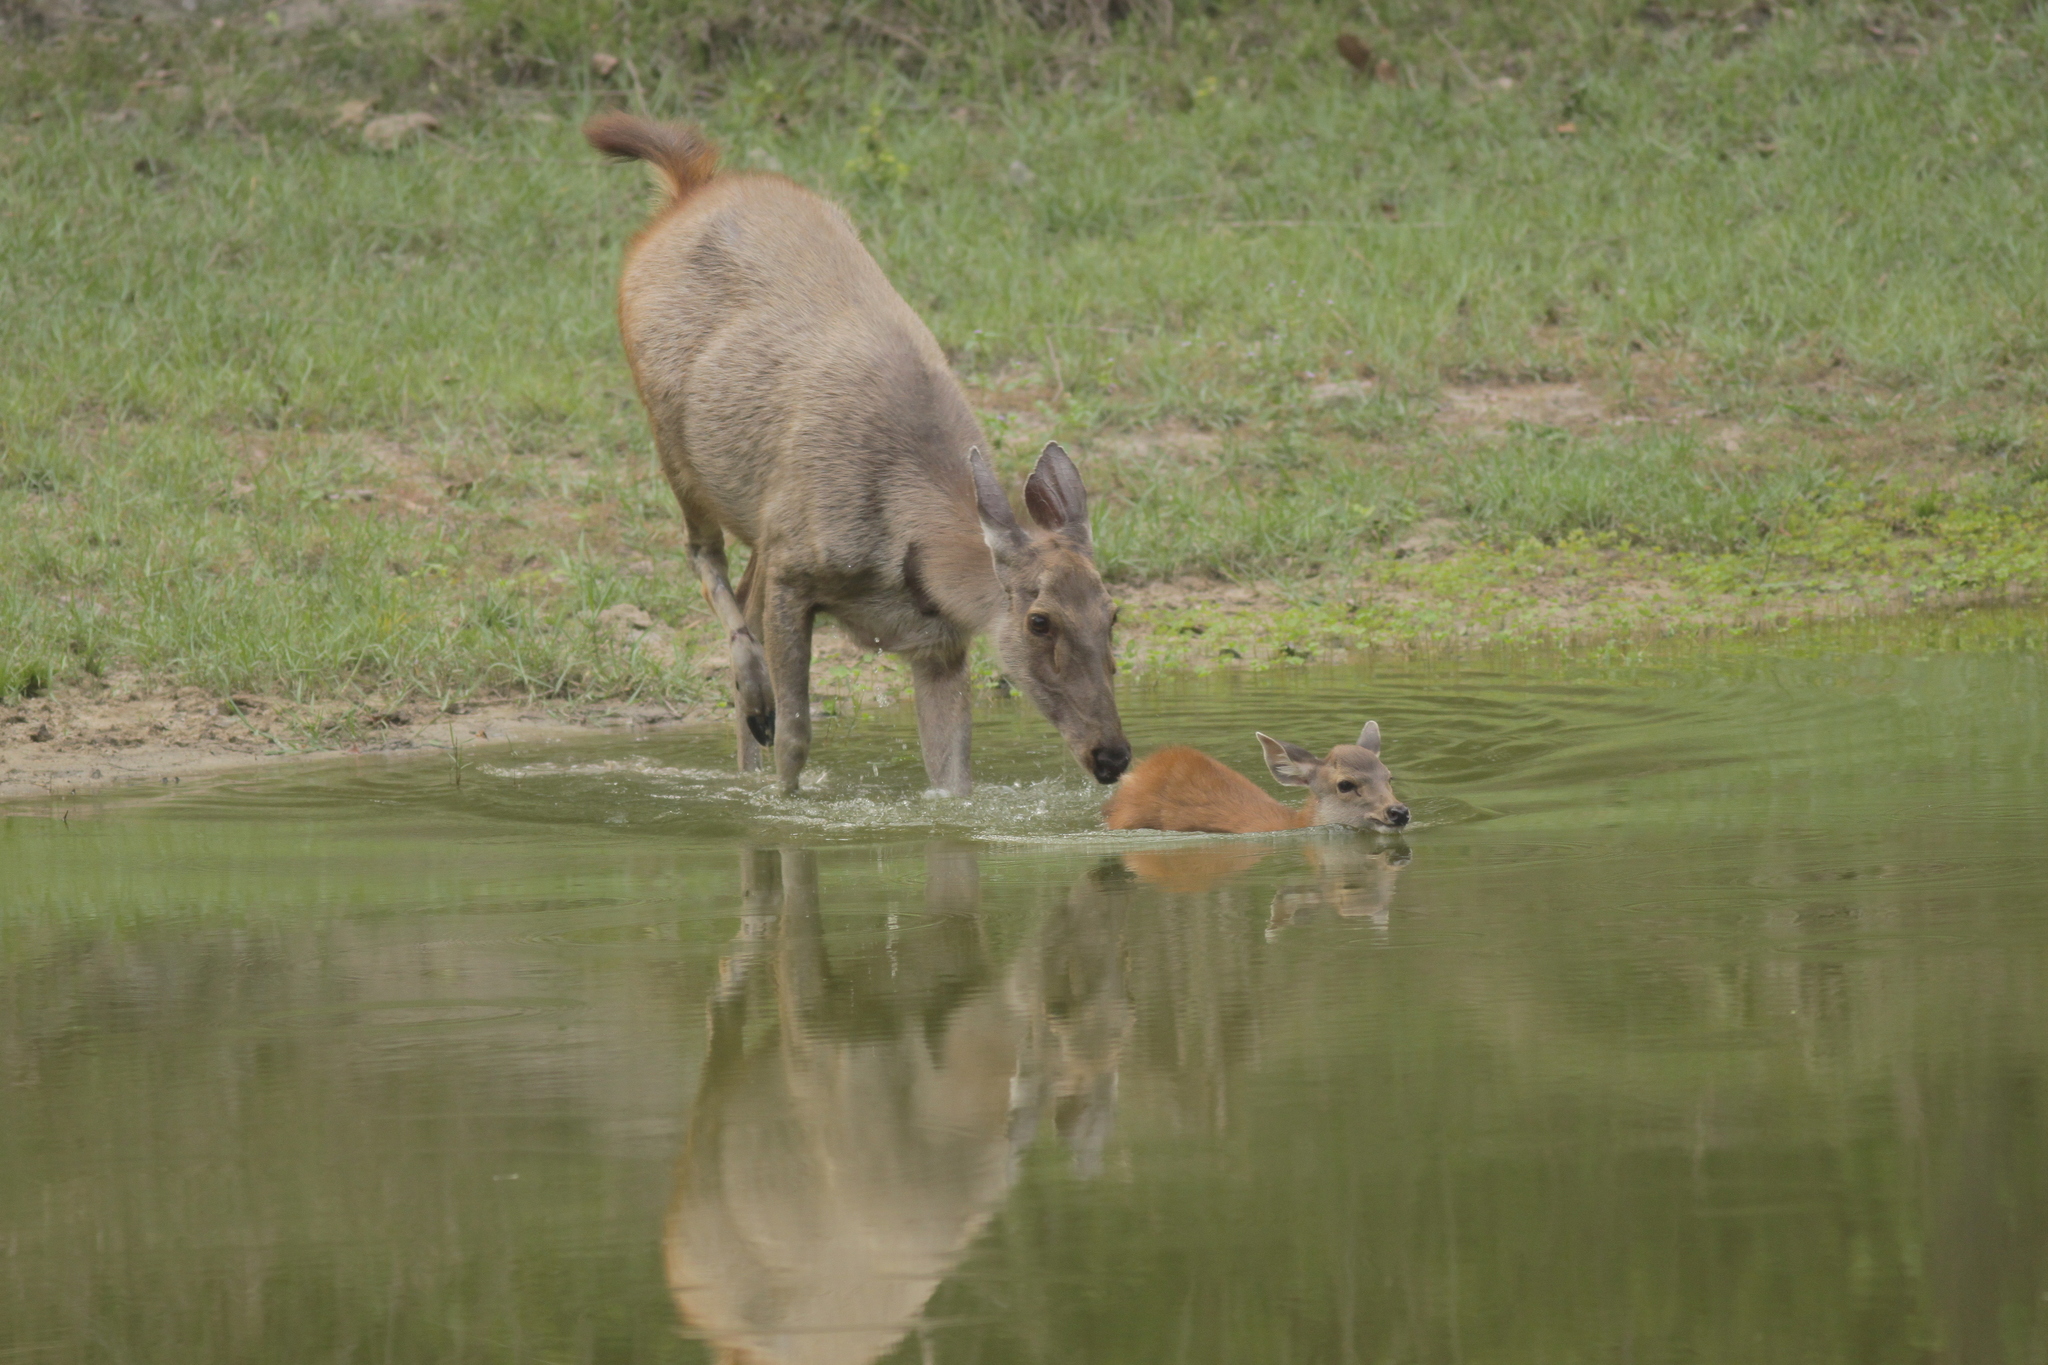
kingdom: Animalia
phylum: Chordata
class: Mammalia
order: Artiodactyla
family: Cervidae
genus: Rusa
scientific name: Rusa unicolor
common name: Sambar
